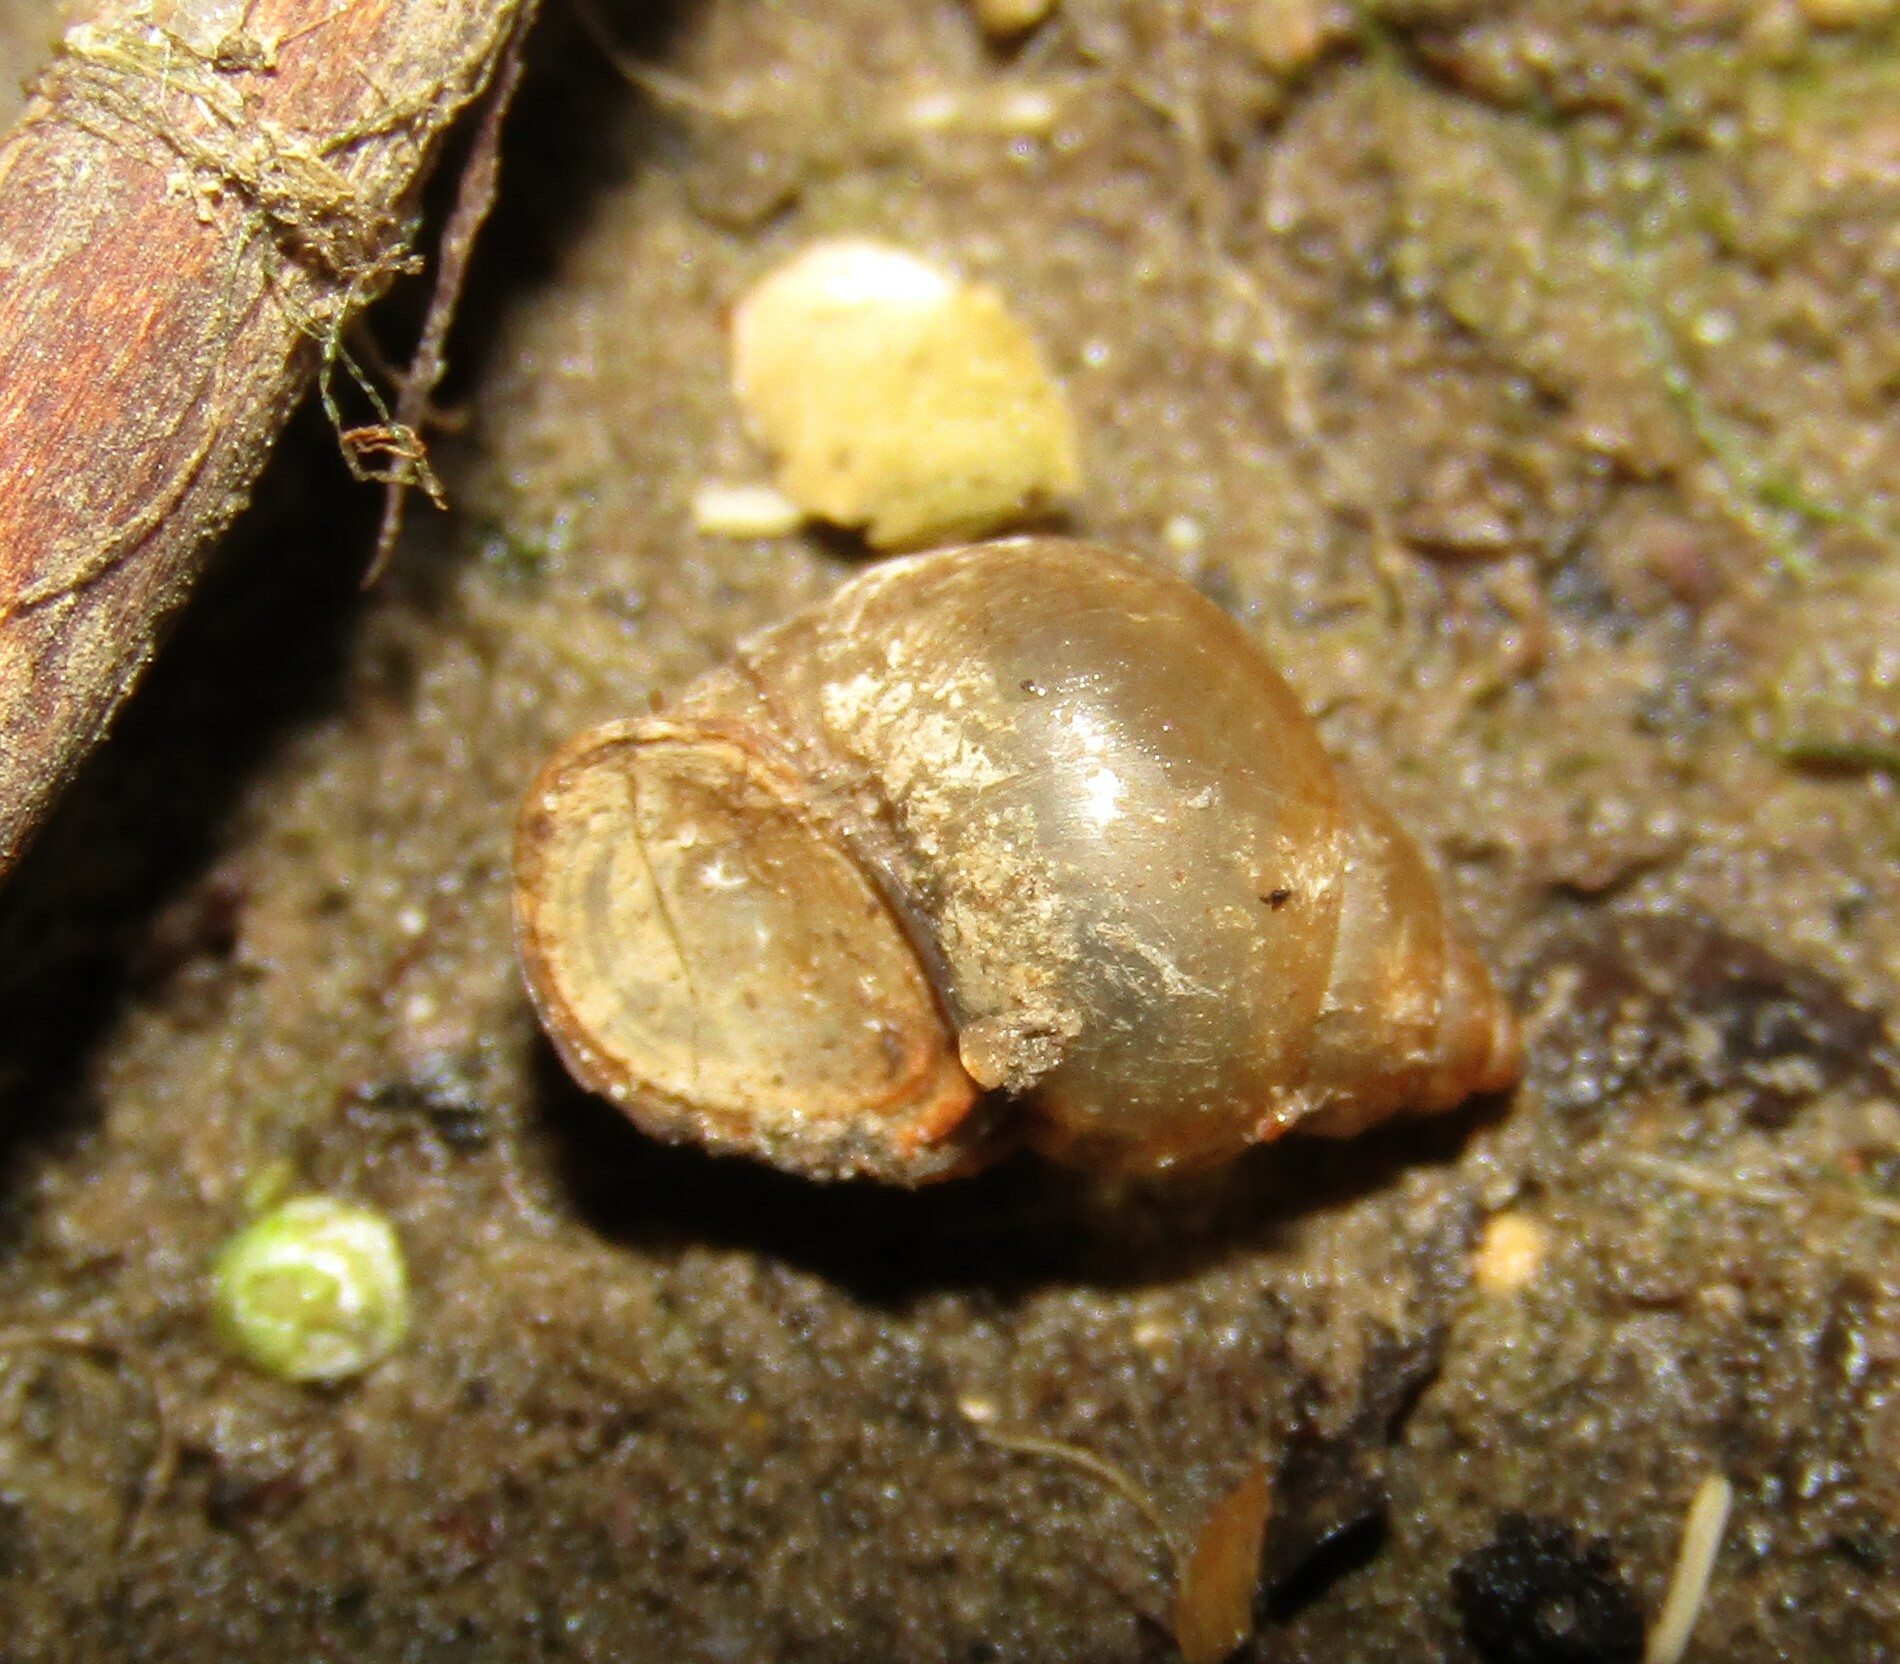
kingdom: Animalia
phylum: Mollusca
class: Gastropoda
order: Littorinimorpha
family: Bithyniidae
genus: Bithynia
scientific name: Bithynia tentaculata
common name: Common bithynia
